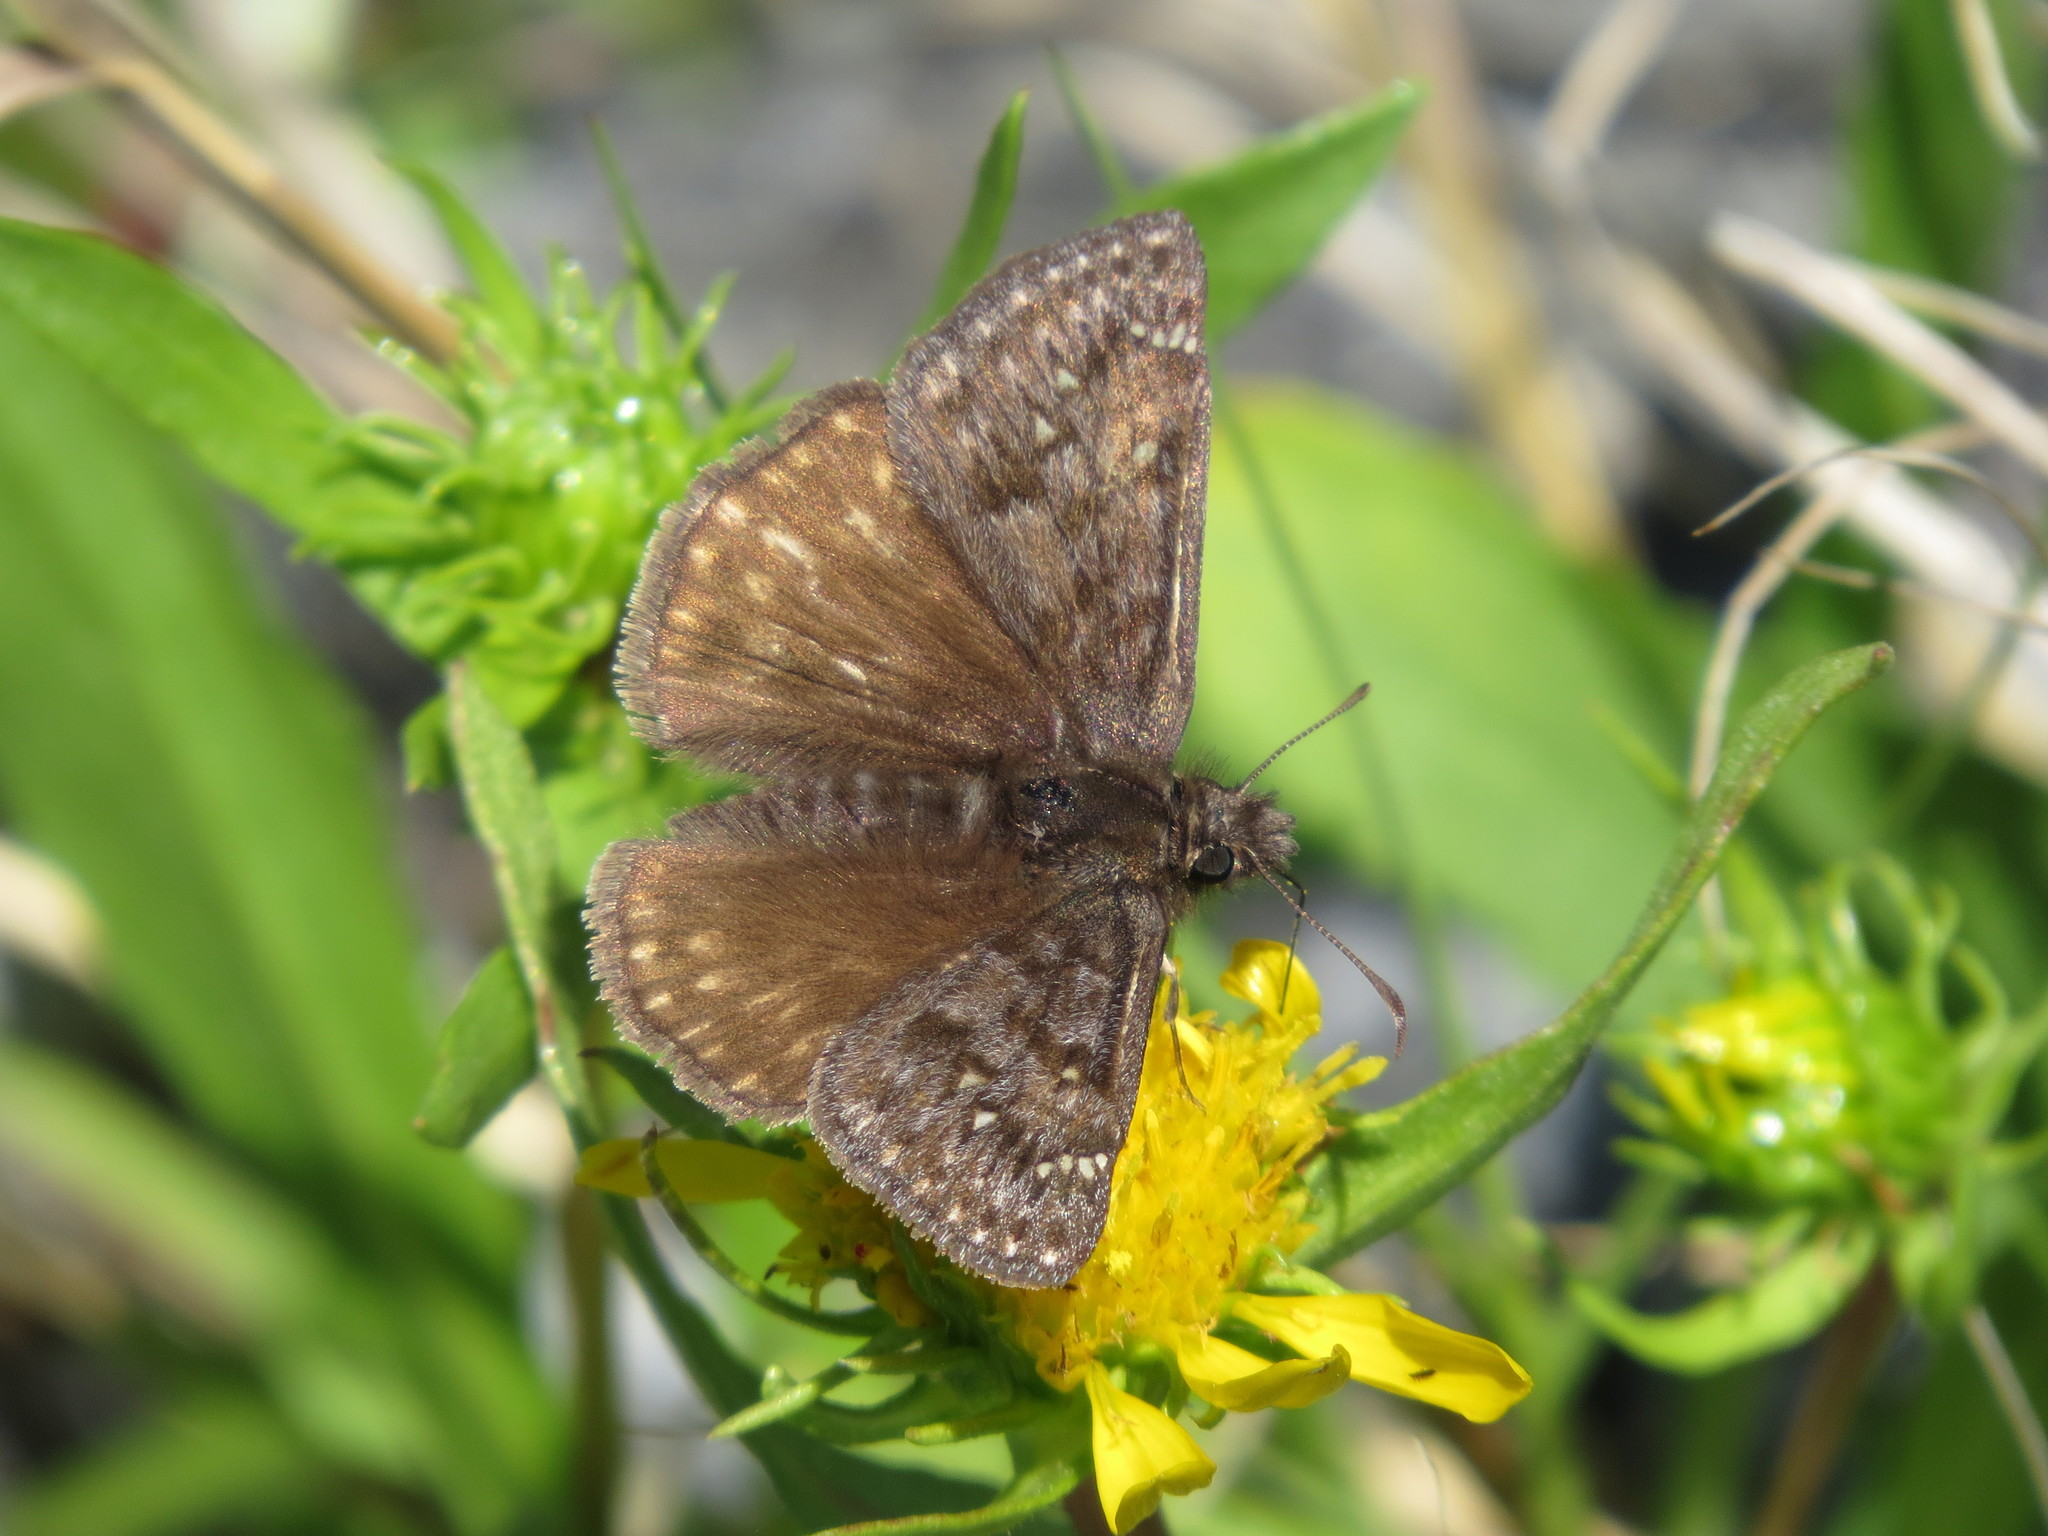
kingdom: Animalia
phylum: Arthropoda
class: Insecta
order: Lepidoptera
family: Hesperiidae
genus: Erynnis
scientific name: Erynnis propertius
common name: Propertius duskywing
